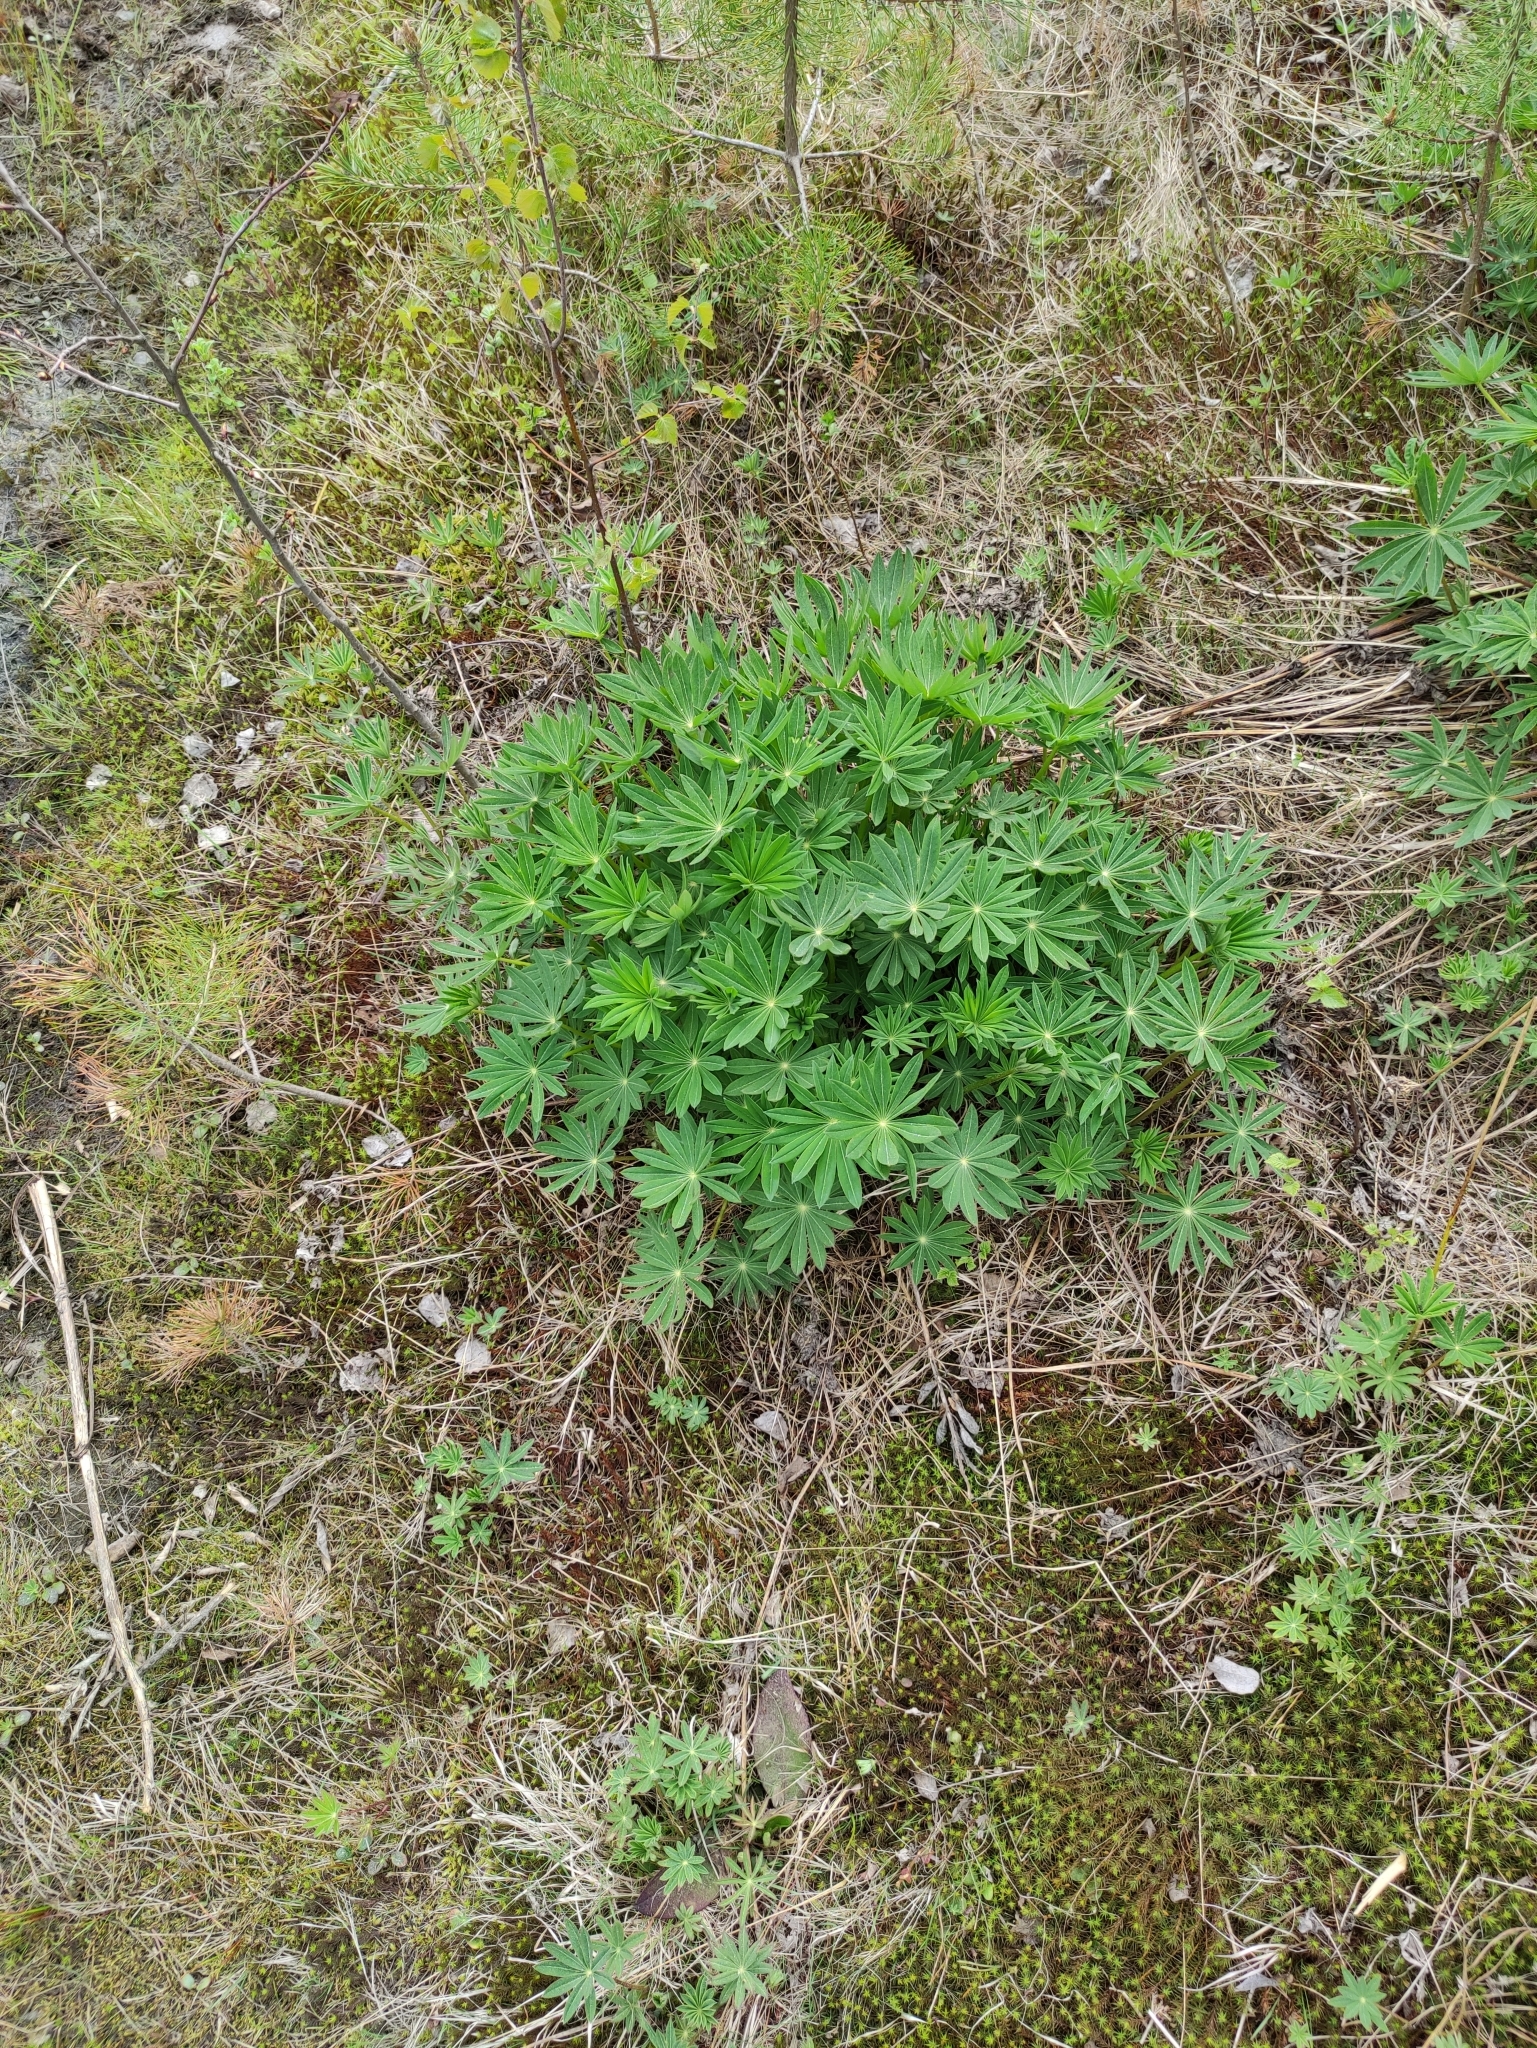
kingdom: Plantae
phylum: Tracheophyta
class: Magnoliopsida
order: Fabales
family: Fabaceae
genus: Lupinus
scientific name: Lupinus polyphyllus
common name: Garden lupin
